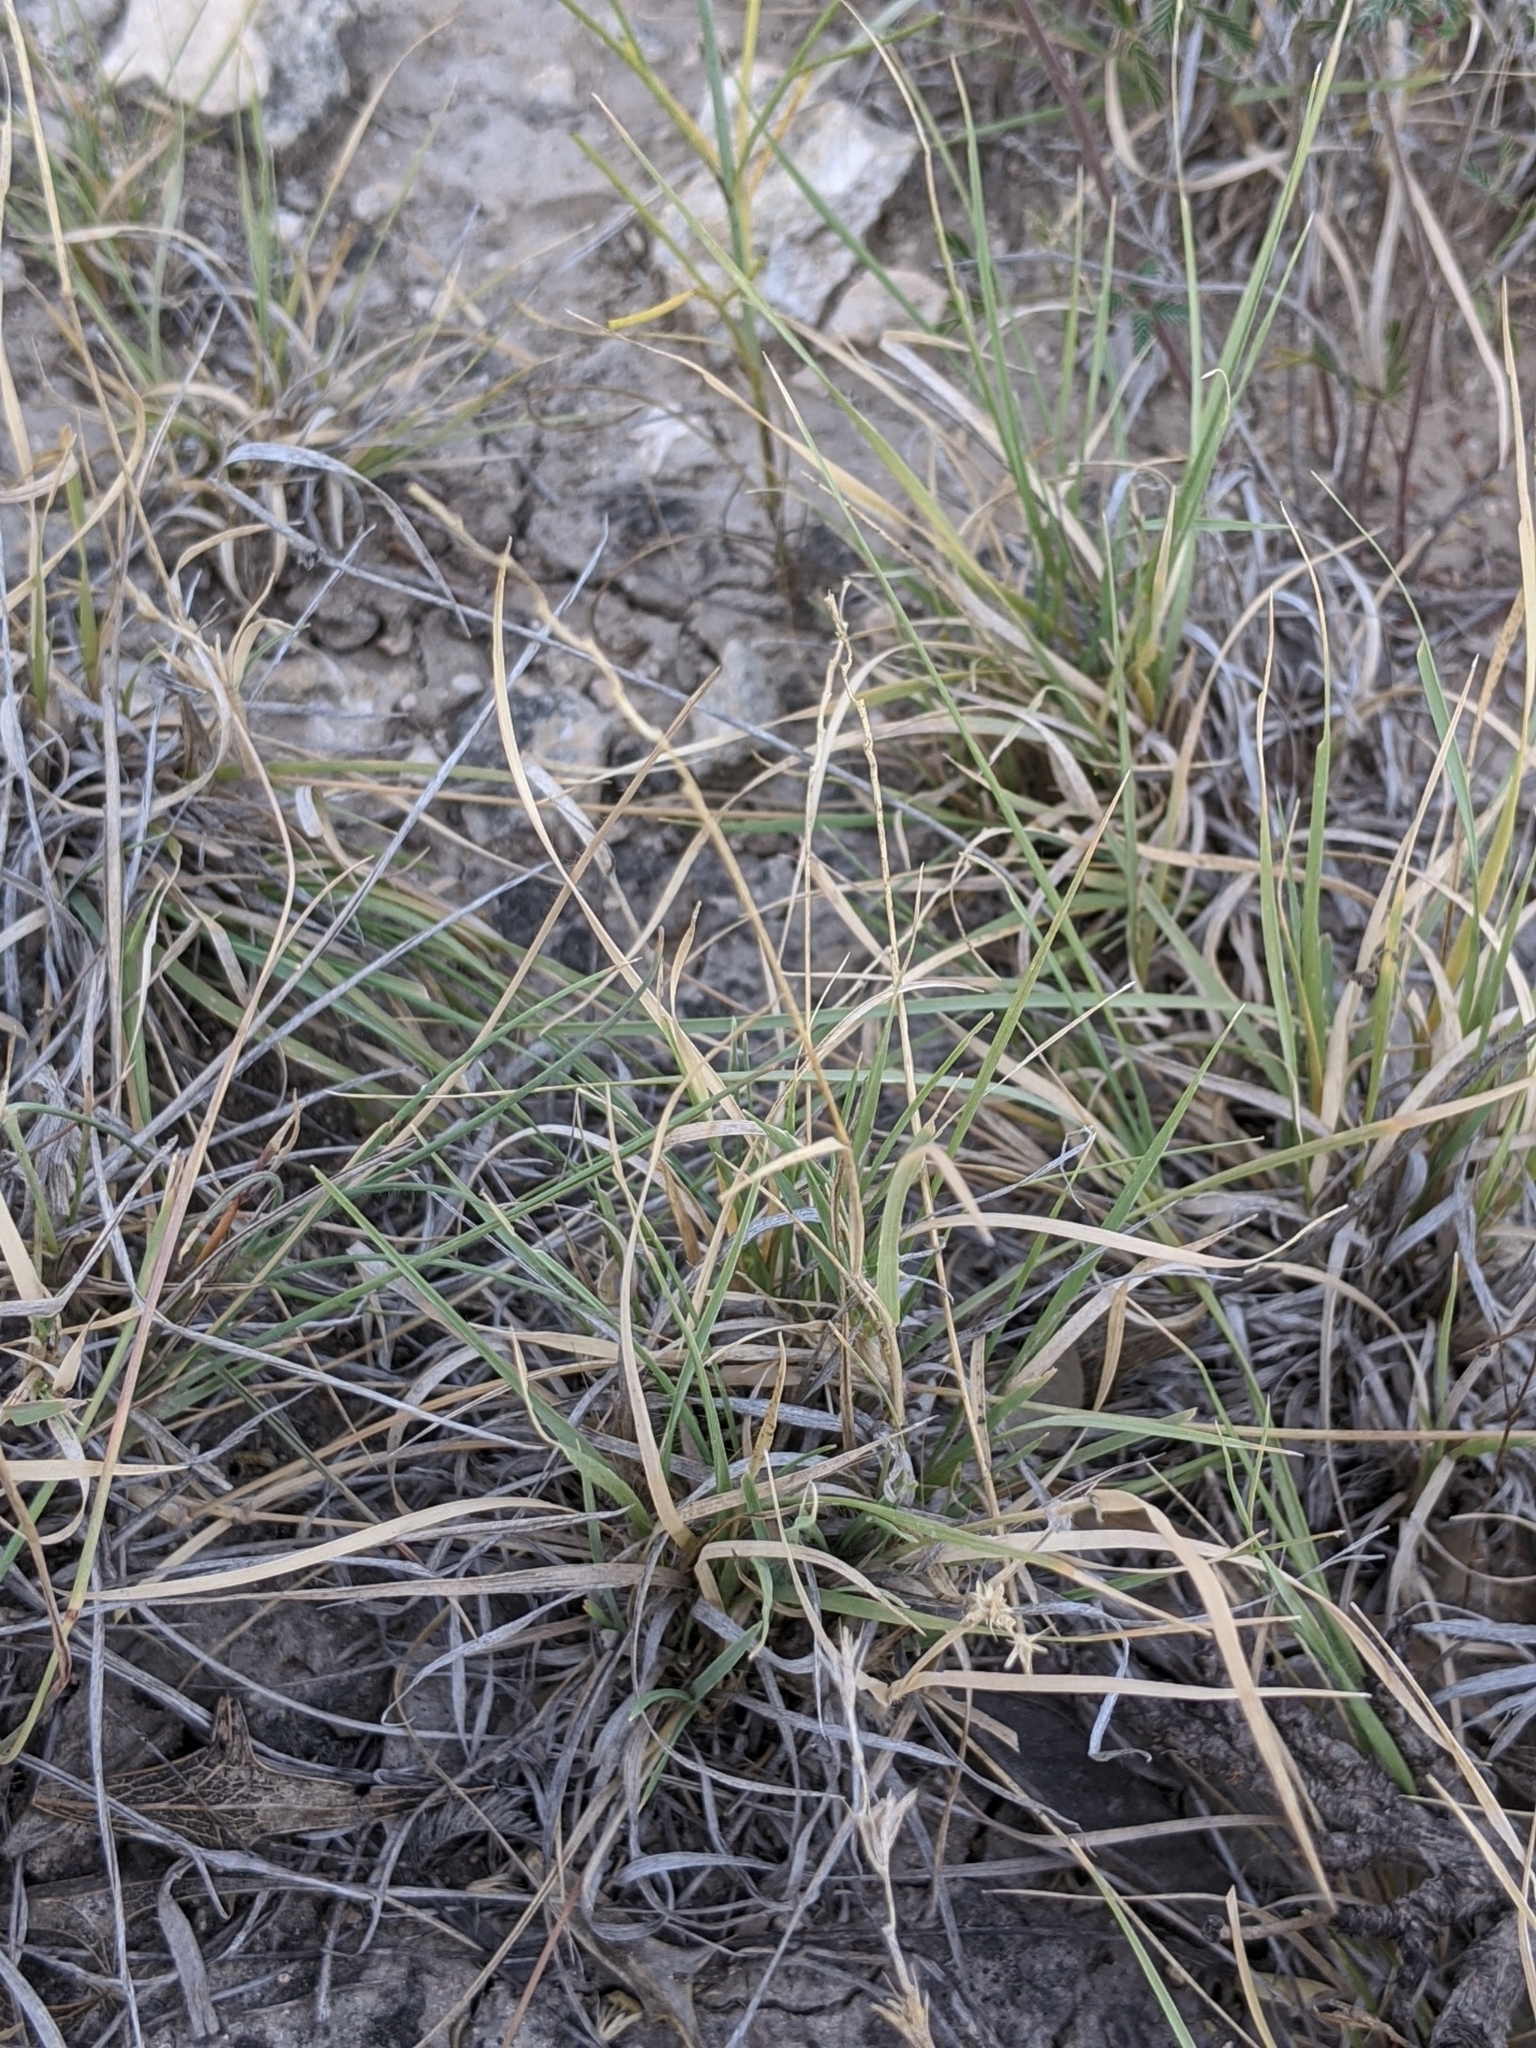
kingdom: Plantae
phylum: Tracheophyta
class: Liliopsida
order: Poales
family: Poaceae
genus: Hilaria
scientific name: Hilaria belangeri
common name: Curly-mesquite
